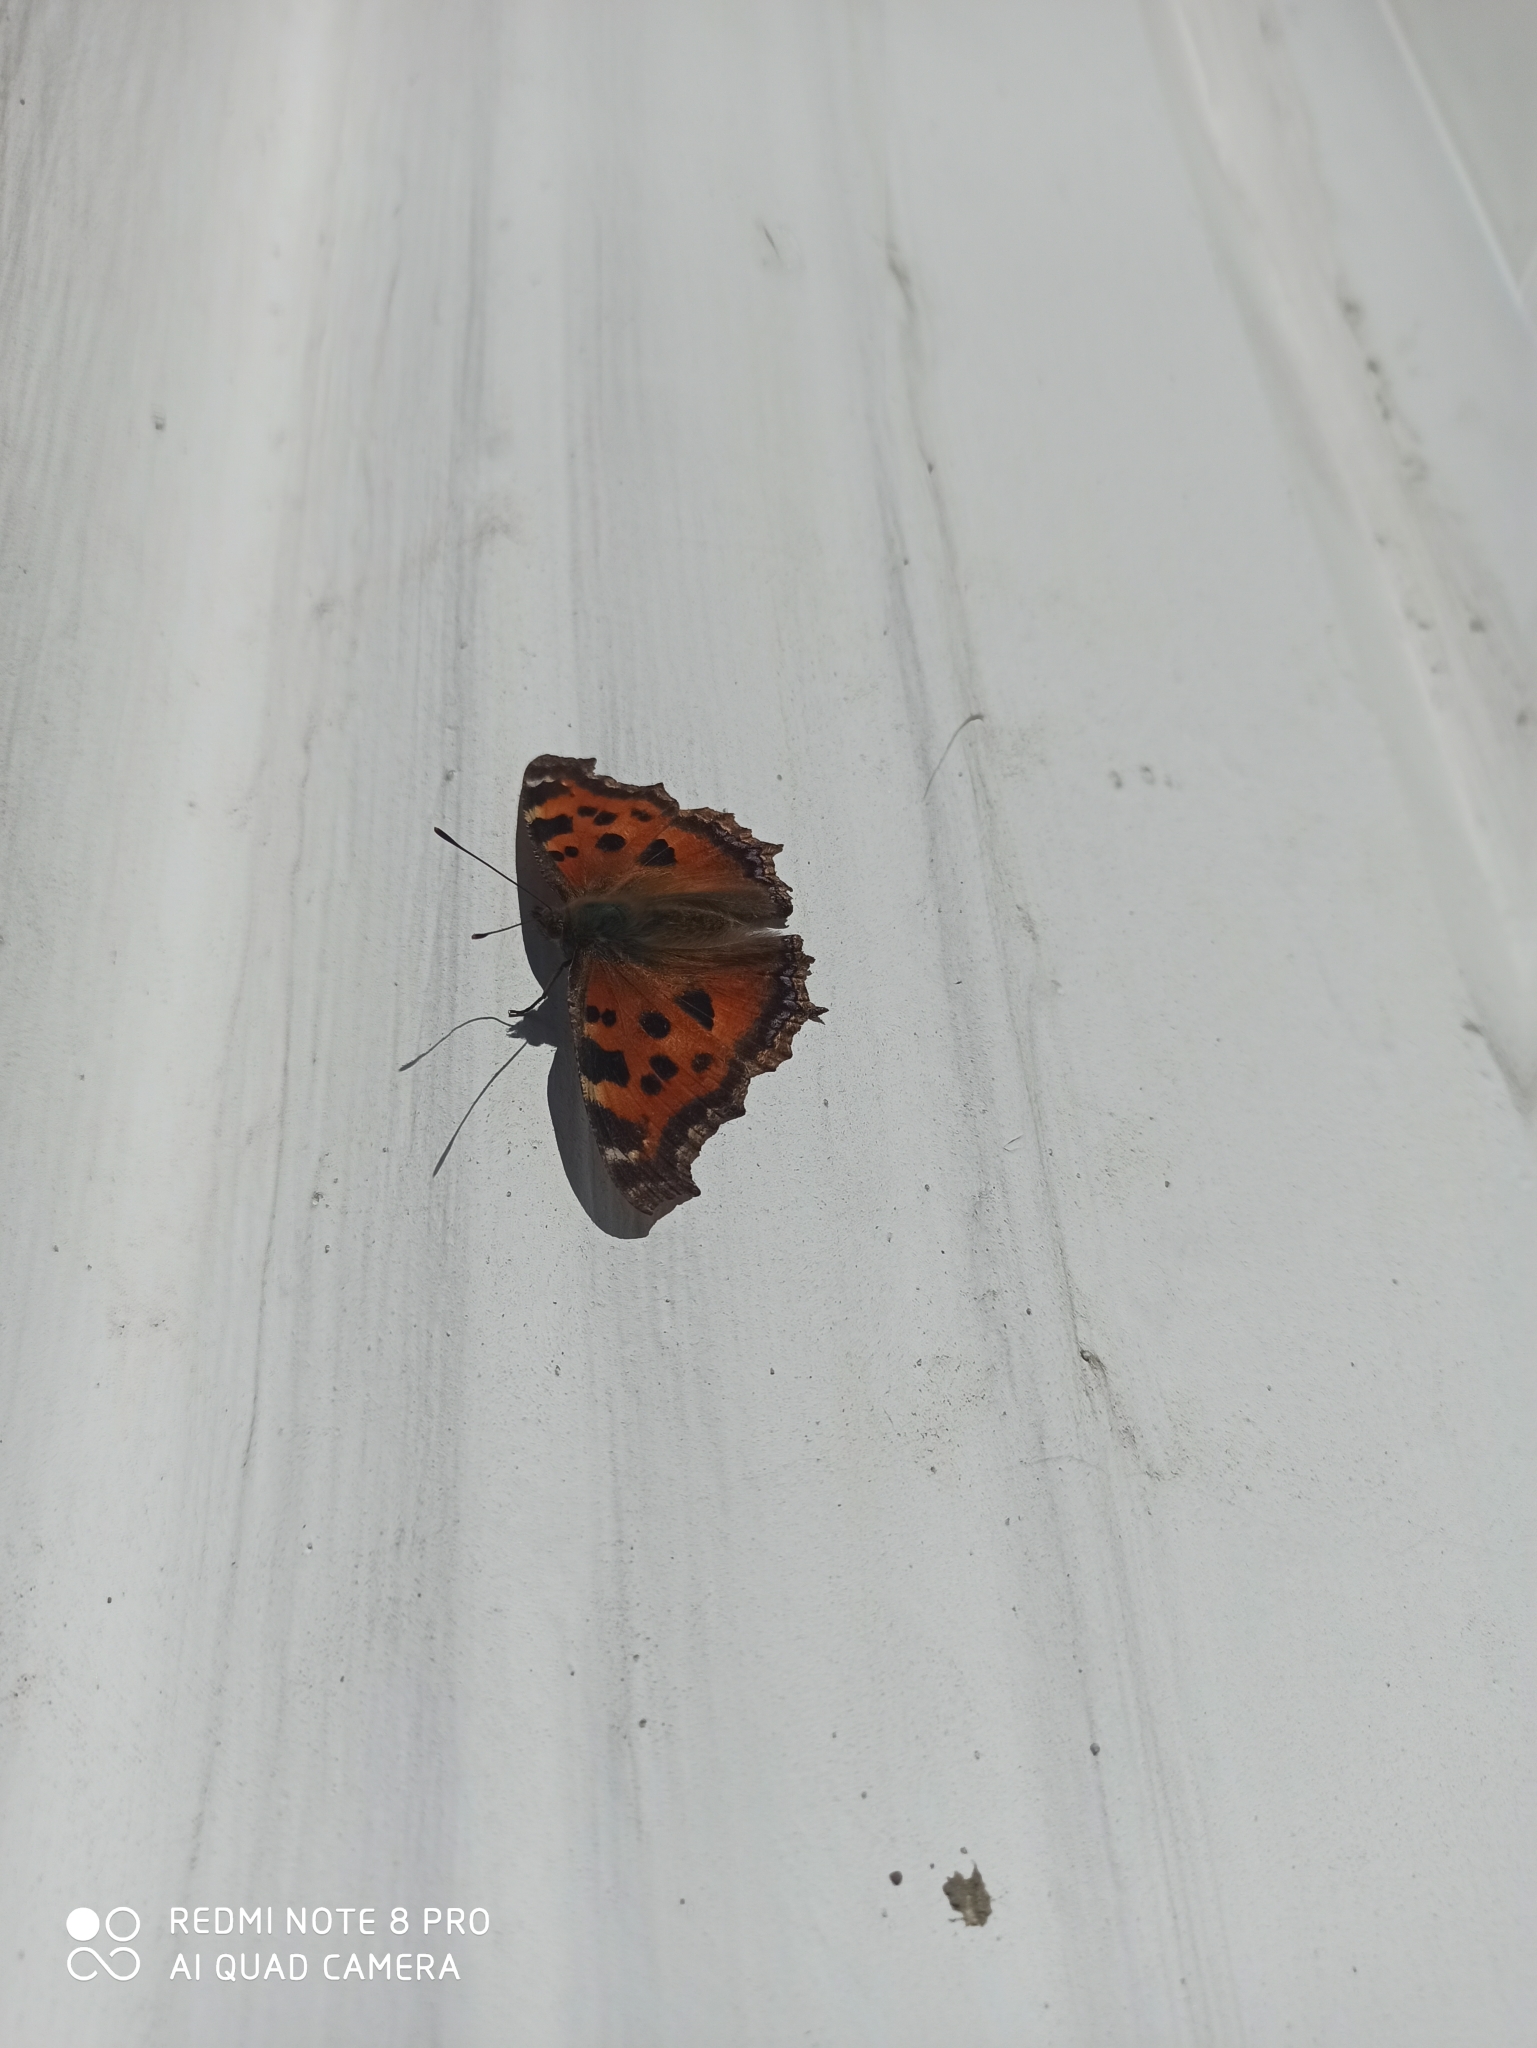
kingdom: Animalia
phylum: Arthropoda
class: Insecta
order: Lepidoptera
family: Nymphalidae
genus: Nymphalis
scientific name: Nymphalis xanthomelas
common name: Scarce tortoiseshell
